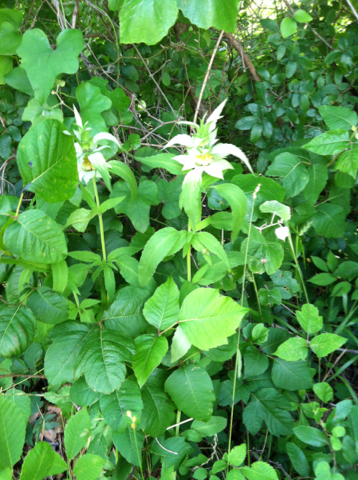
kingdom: Plantae
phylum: Tracheophyta
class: Magnoliopsida
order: Lamiales
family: Lamiaceae
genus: Monarda
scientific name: Monarda punctata
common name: Dotted monarda
